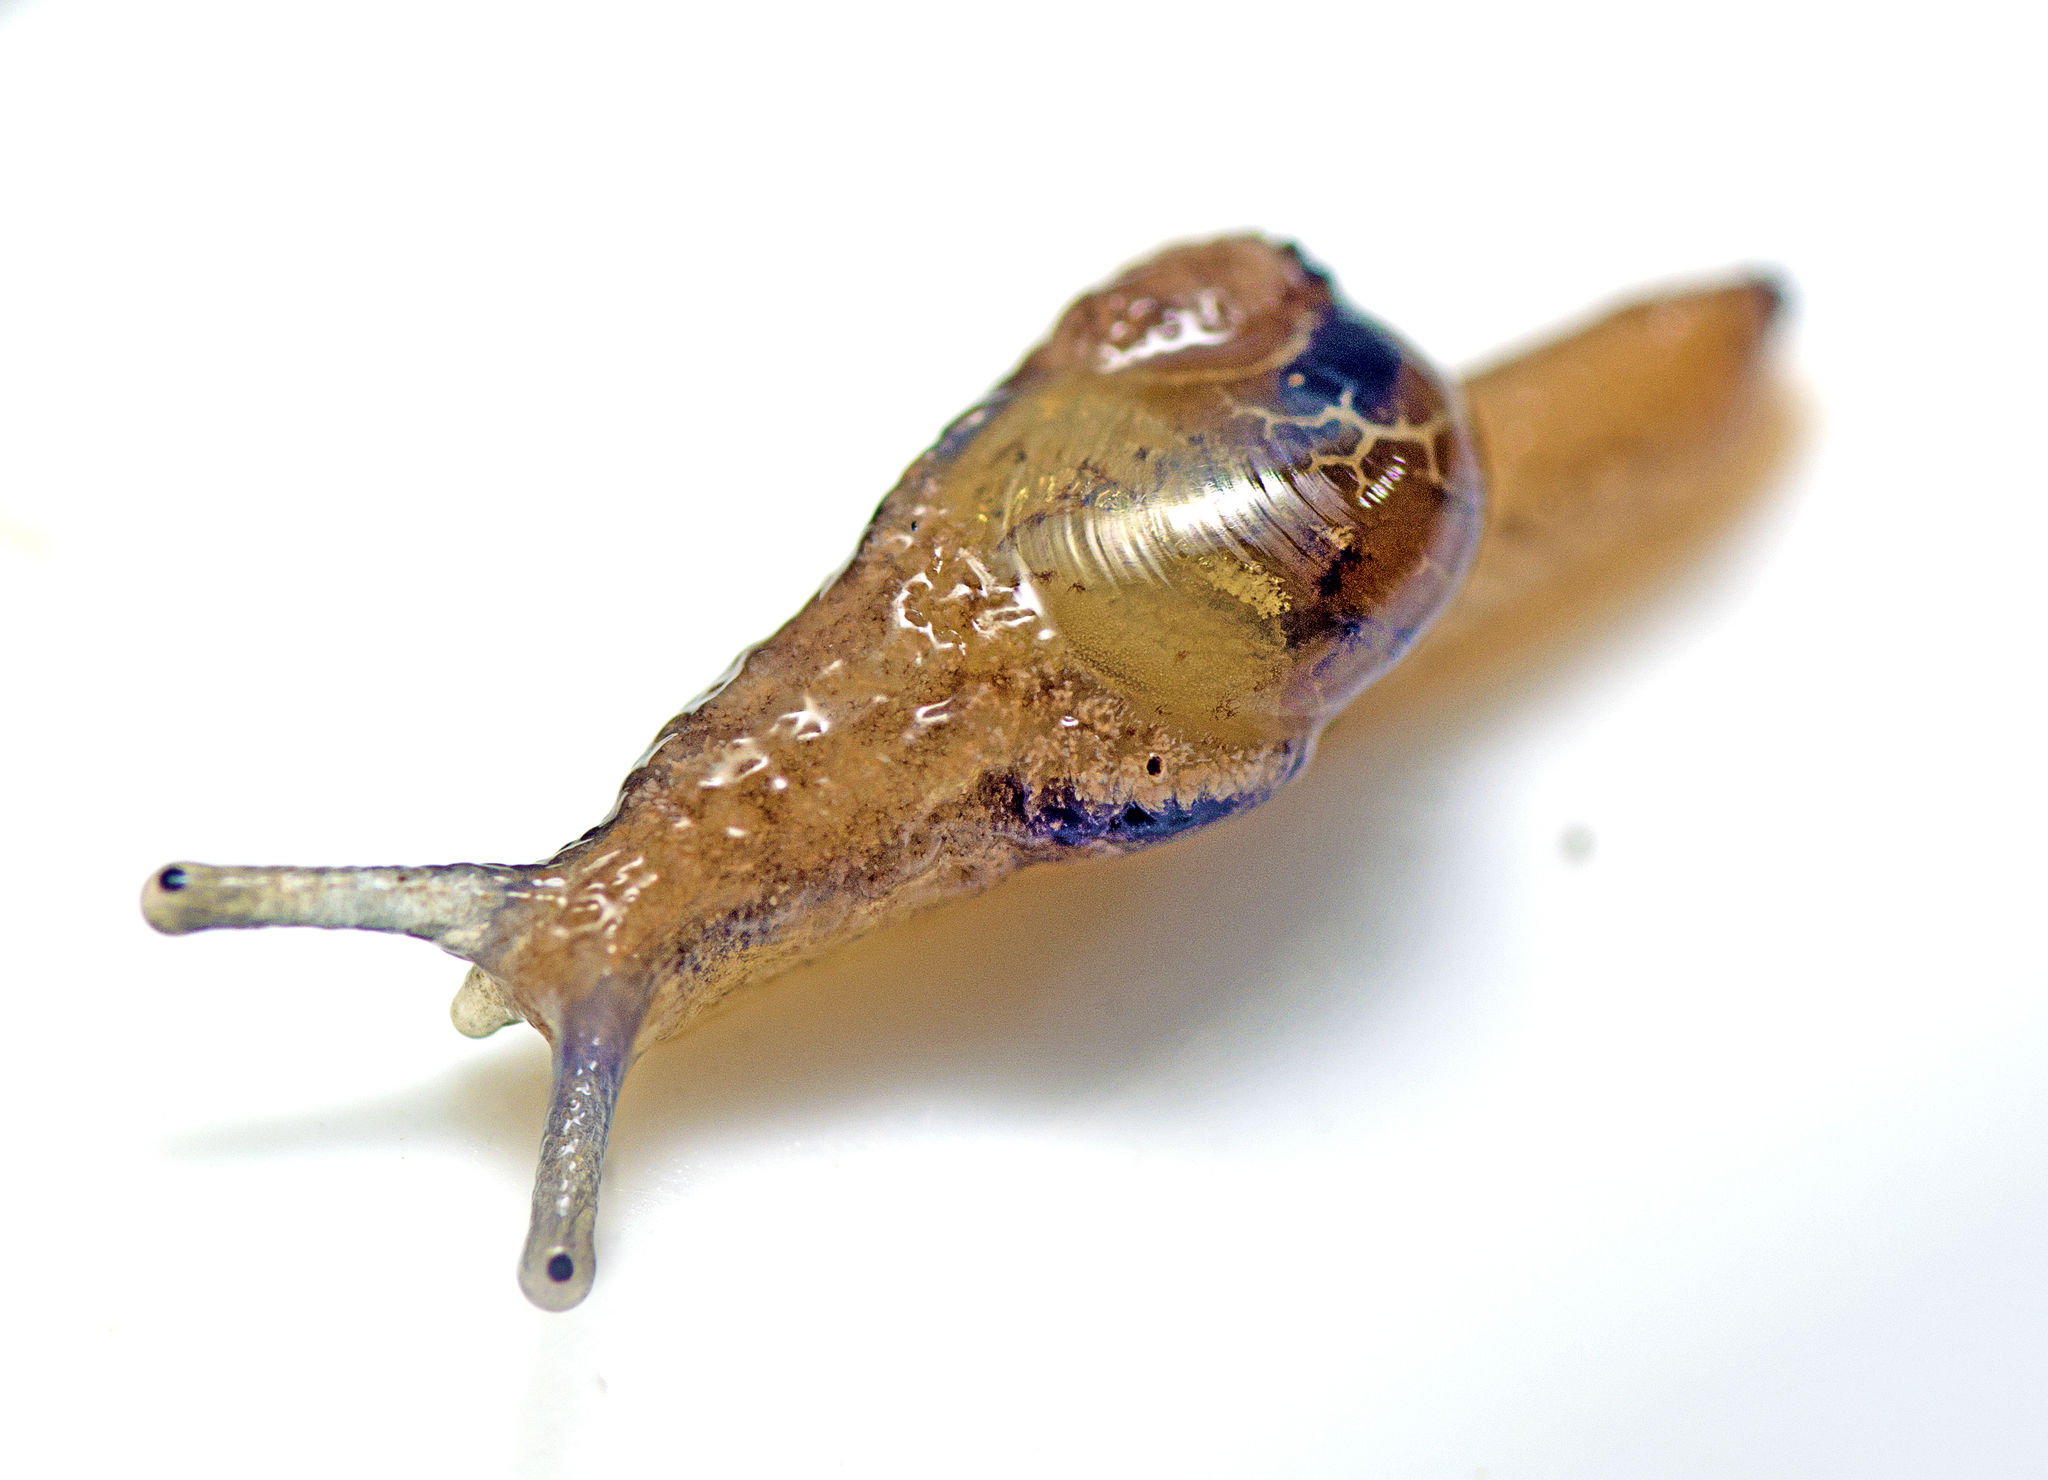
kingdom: Animalia
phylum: Mollusca
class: Gastropoda
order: Stylommatophora
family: Helicarionidae
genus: Ubiquitarion
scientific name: Ubiquitarion iridis
